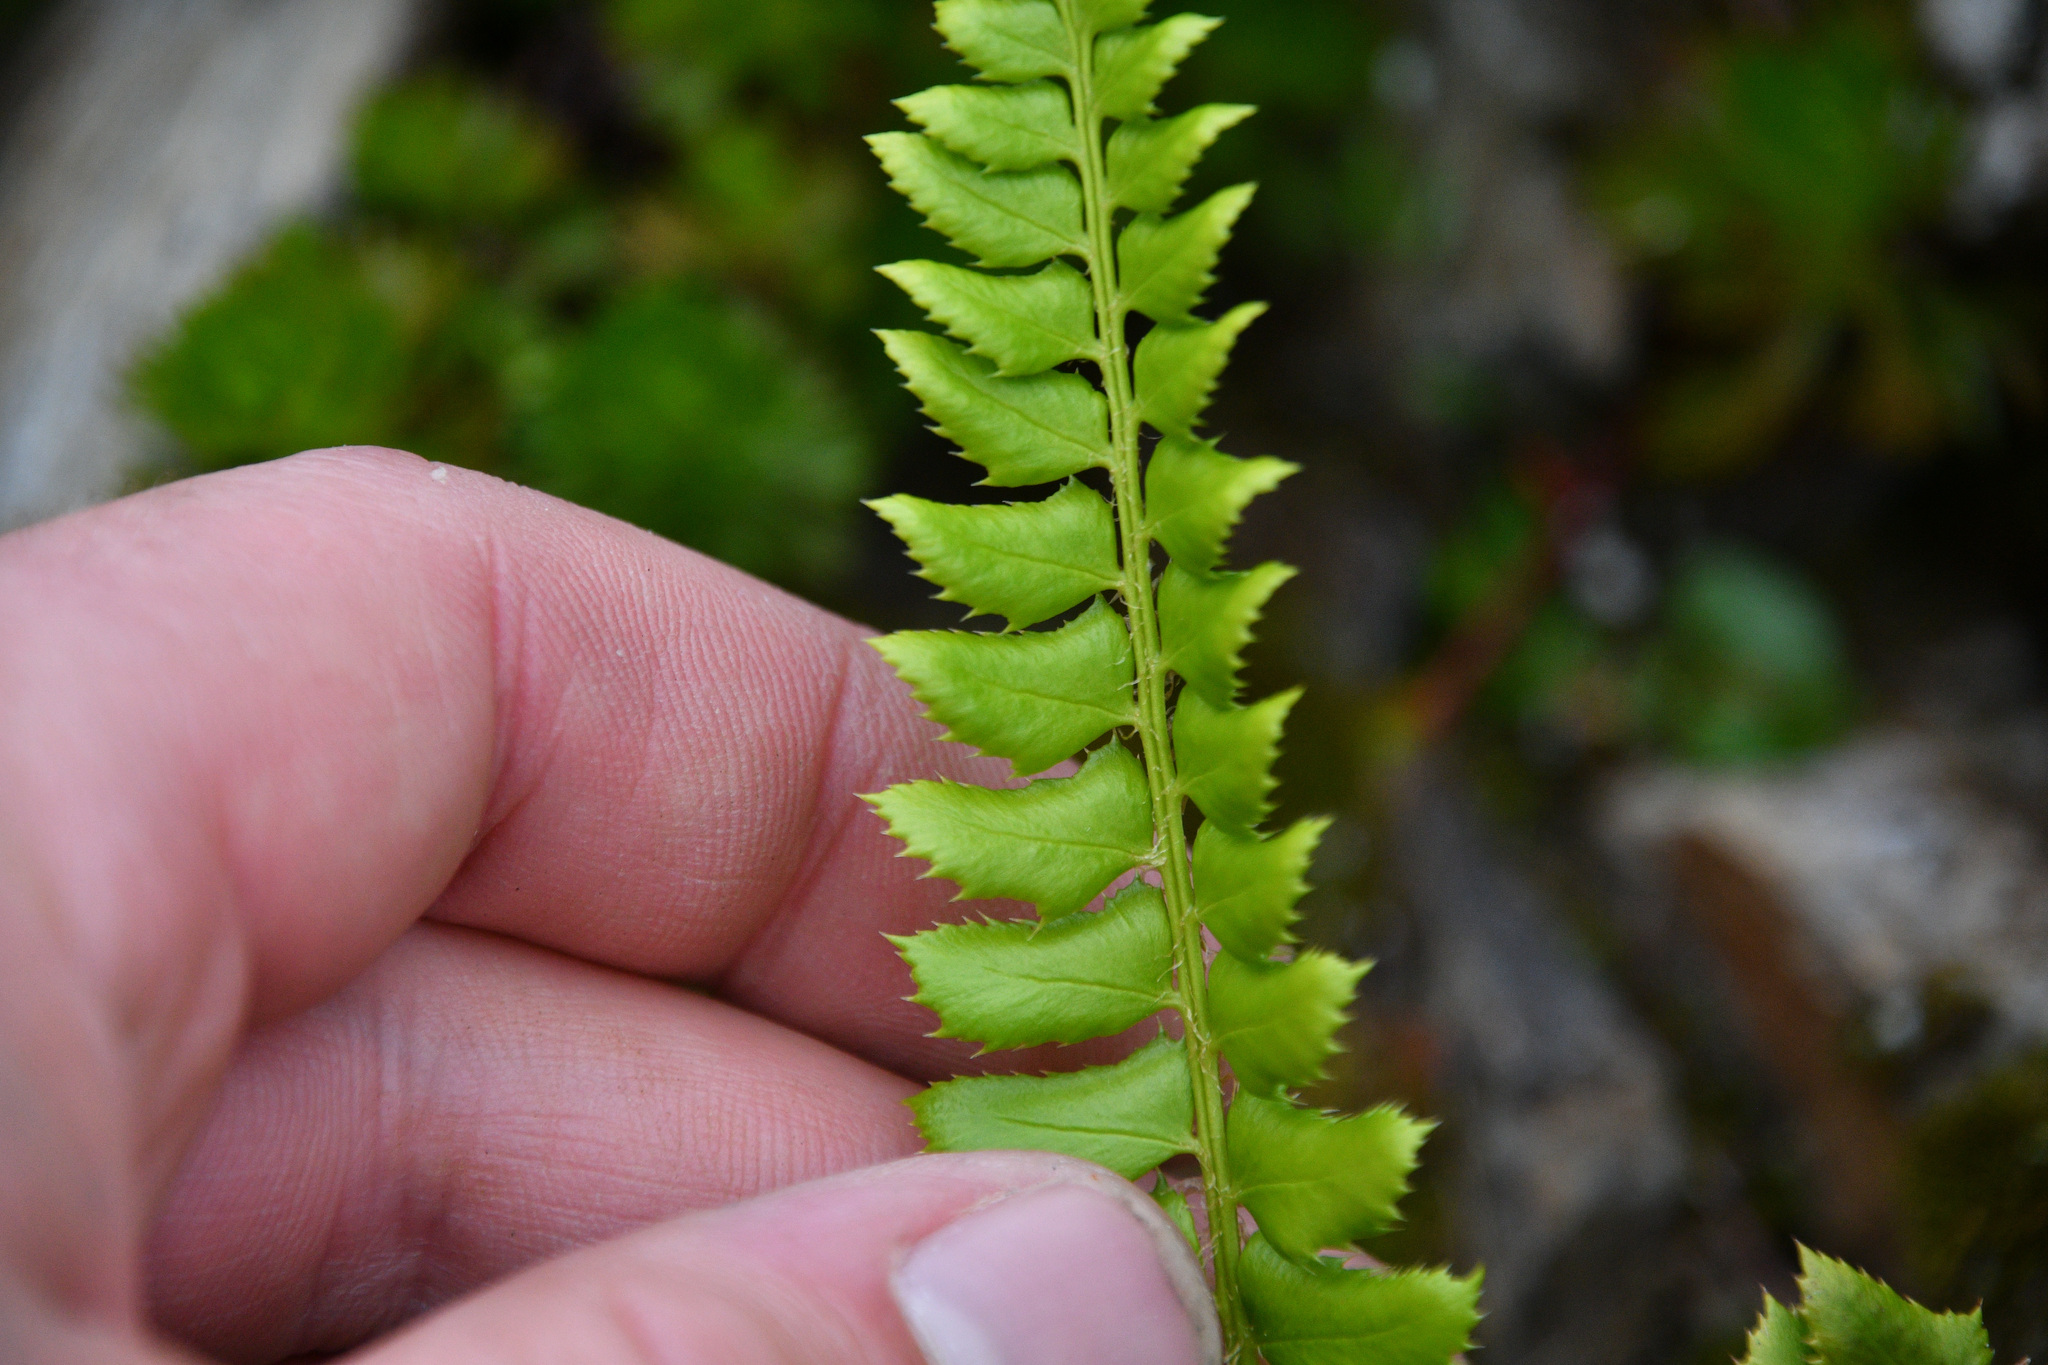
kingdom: Plantae
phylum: Tracheophyta
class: Polypodiopsida
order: Polypodiales
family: Dryopteridaceae
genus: Polystichum
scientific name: Polystichum lonchitis
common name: Holly fern
